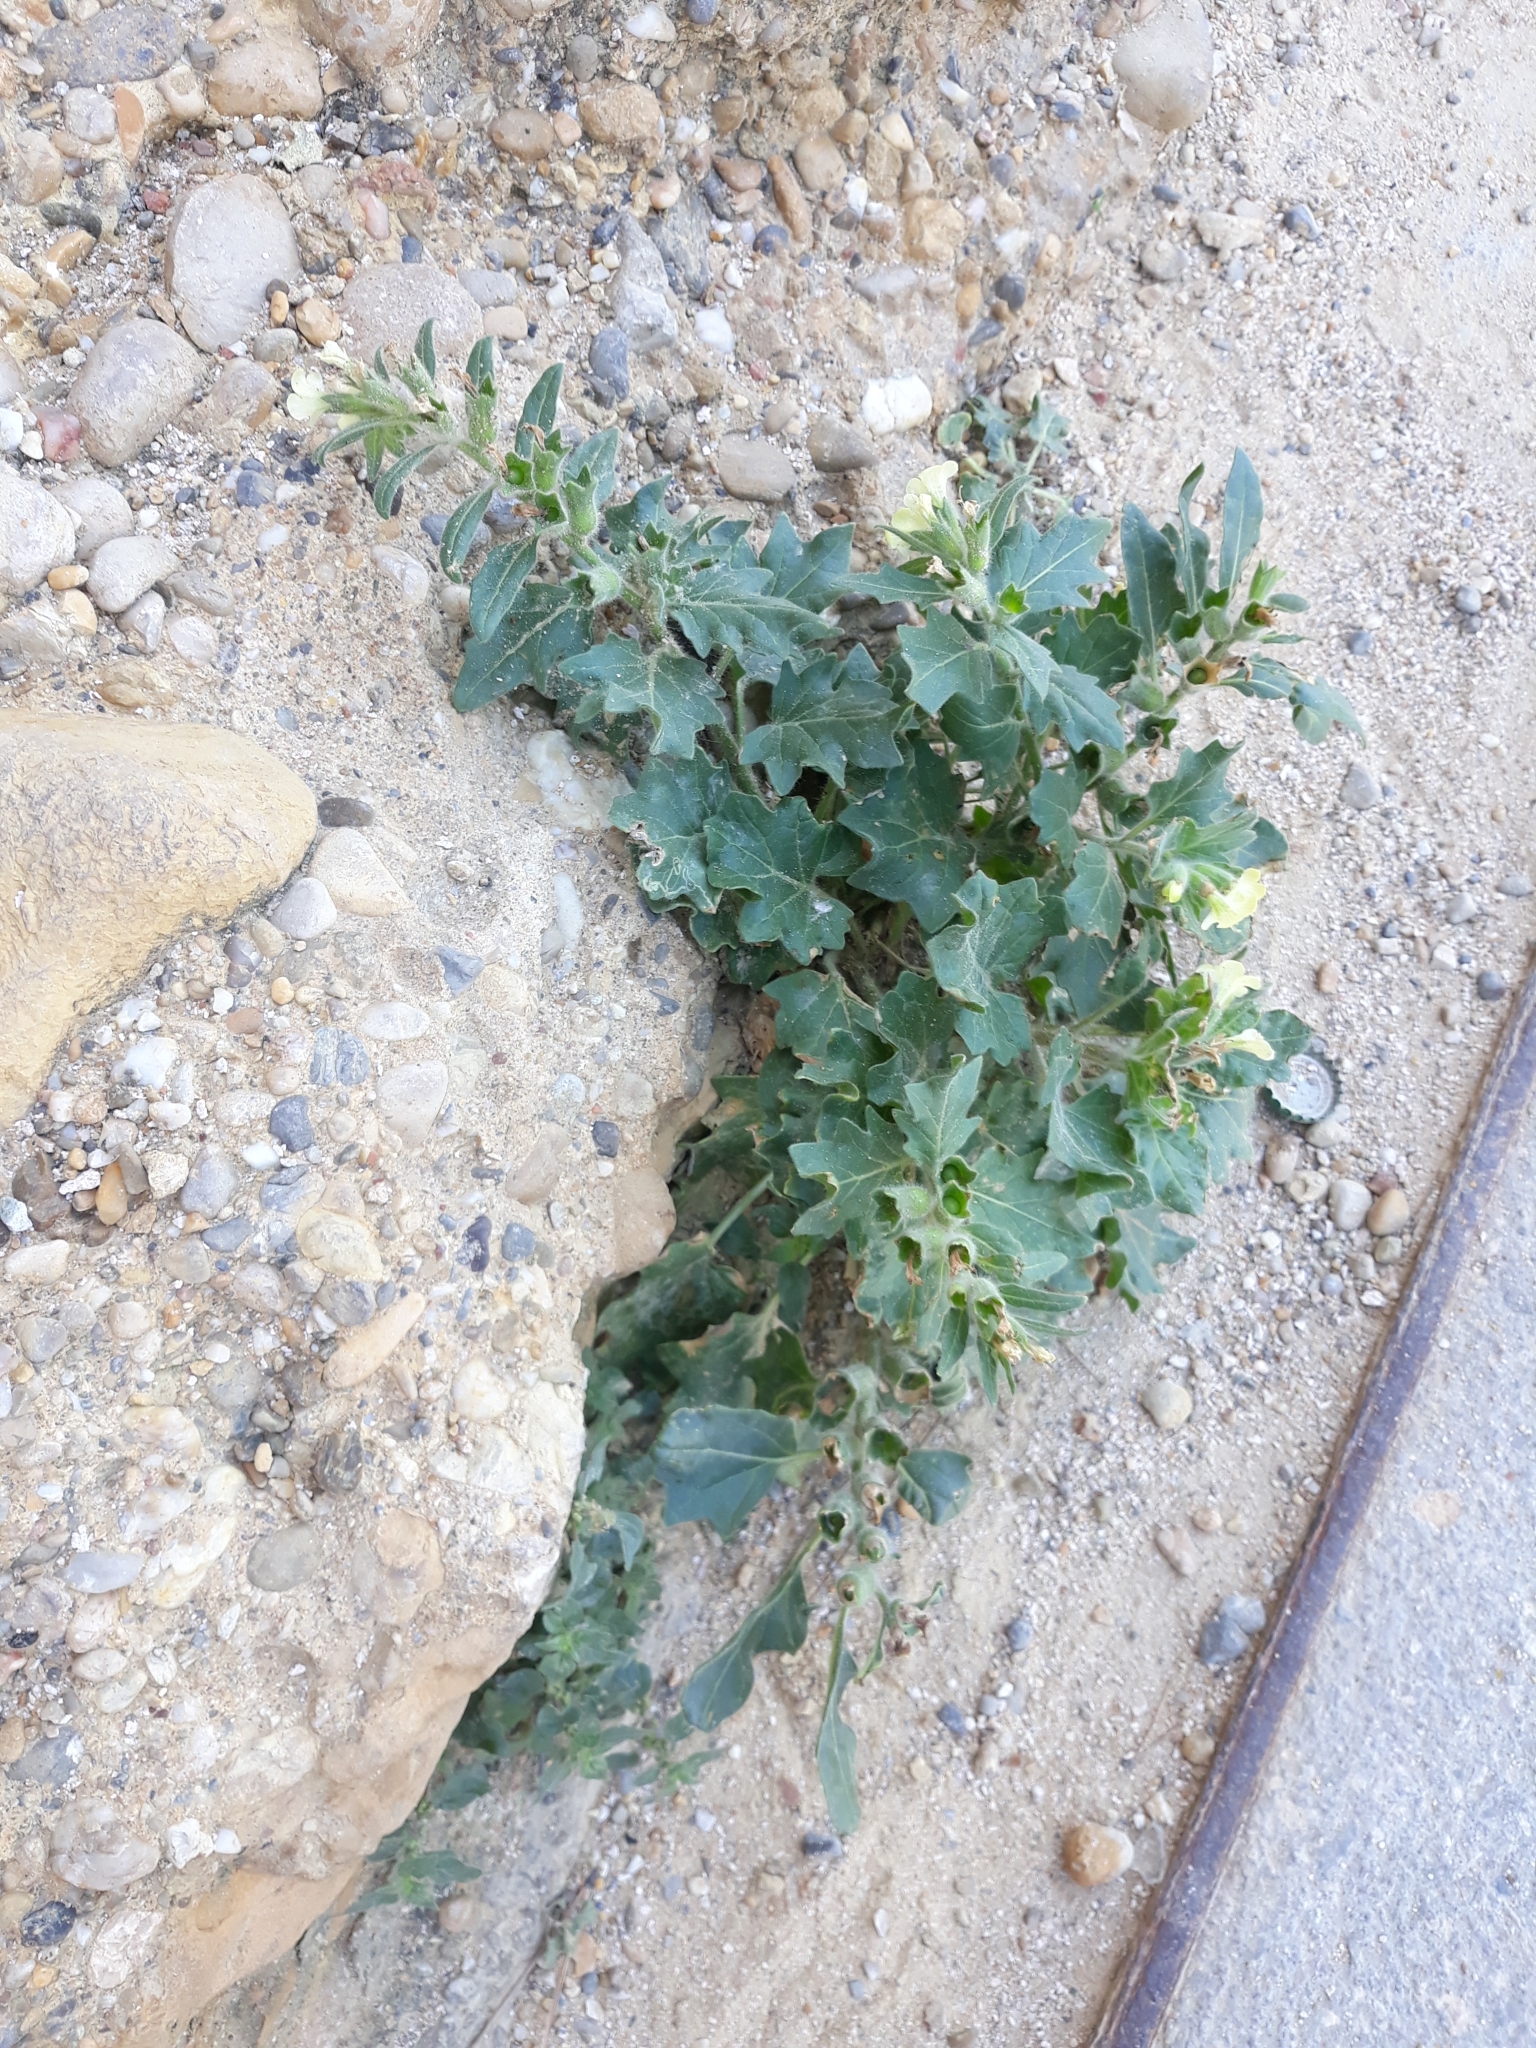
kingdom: Plantae
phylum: Tracheophyta
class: Magnoliopsida
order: Solanales
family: Solanaceae
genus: Hyoscyamus
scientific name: Hyoscyamus albus
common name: White henbane
